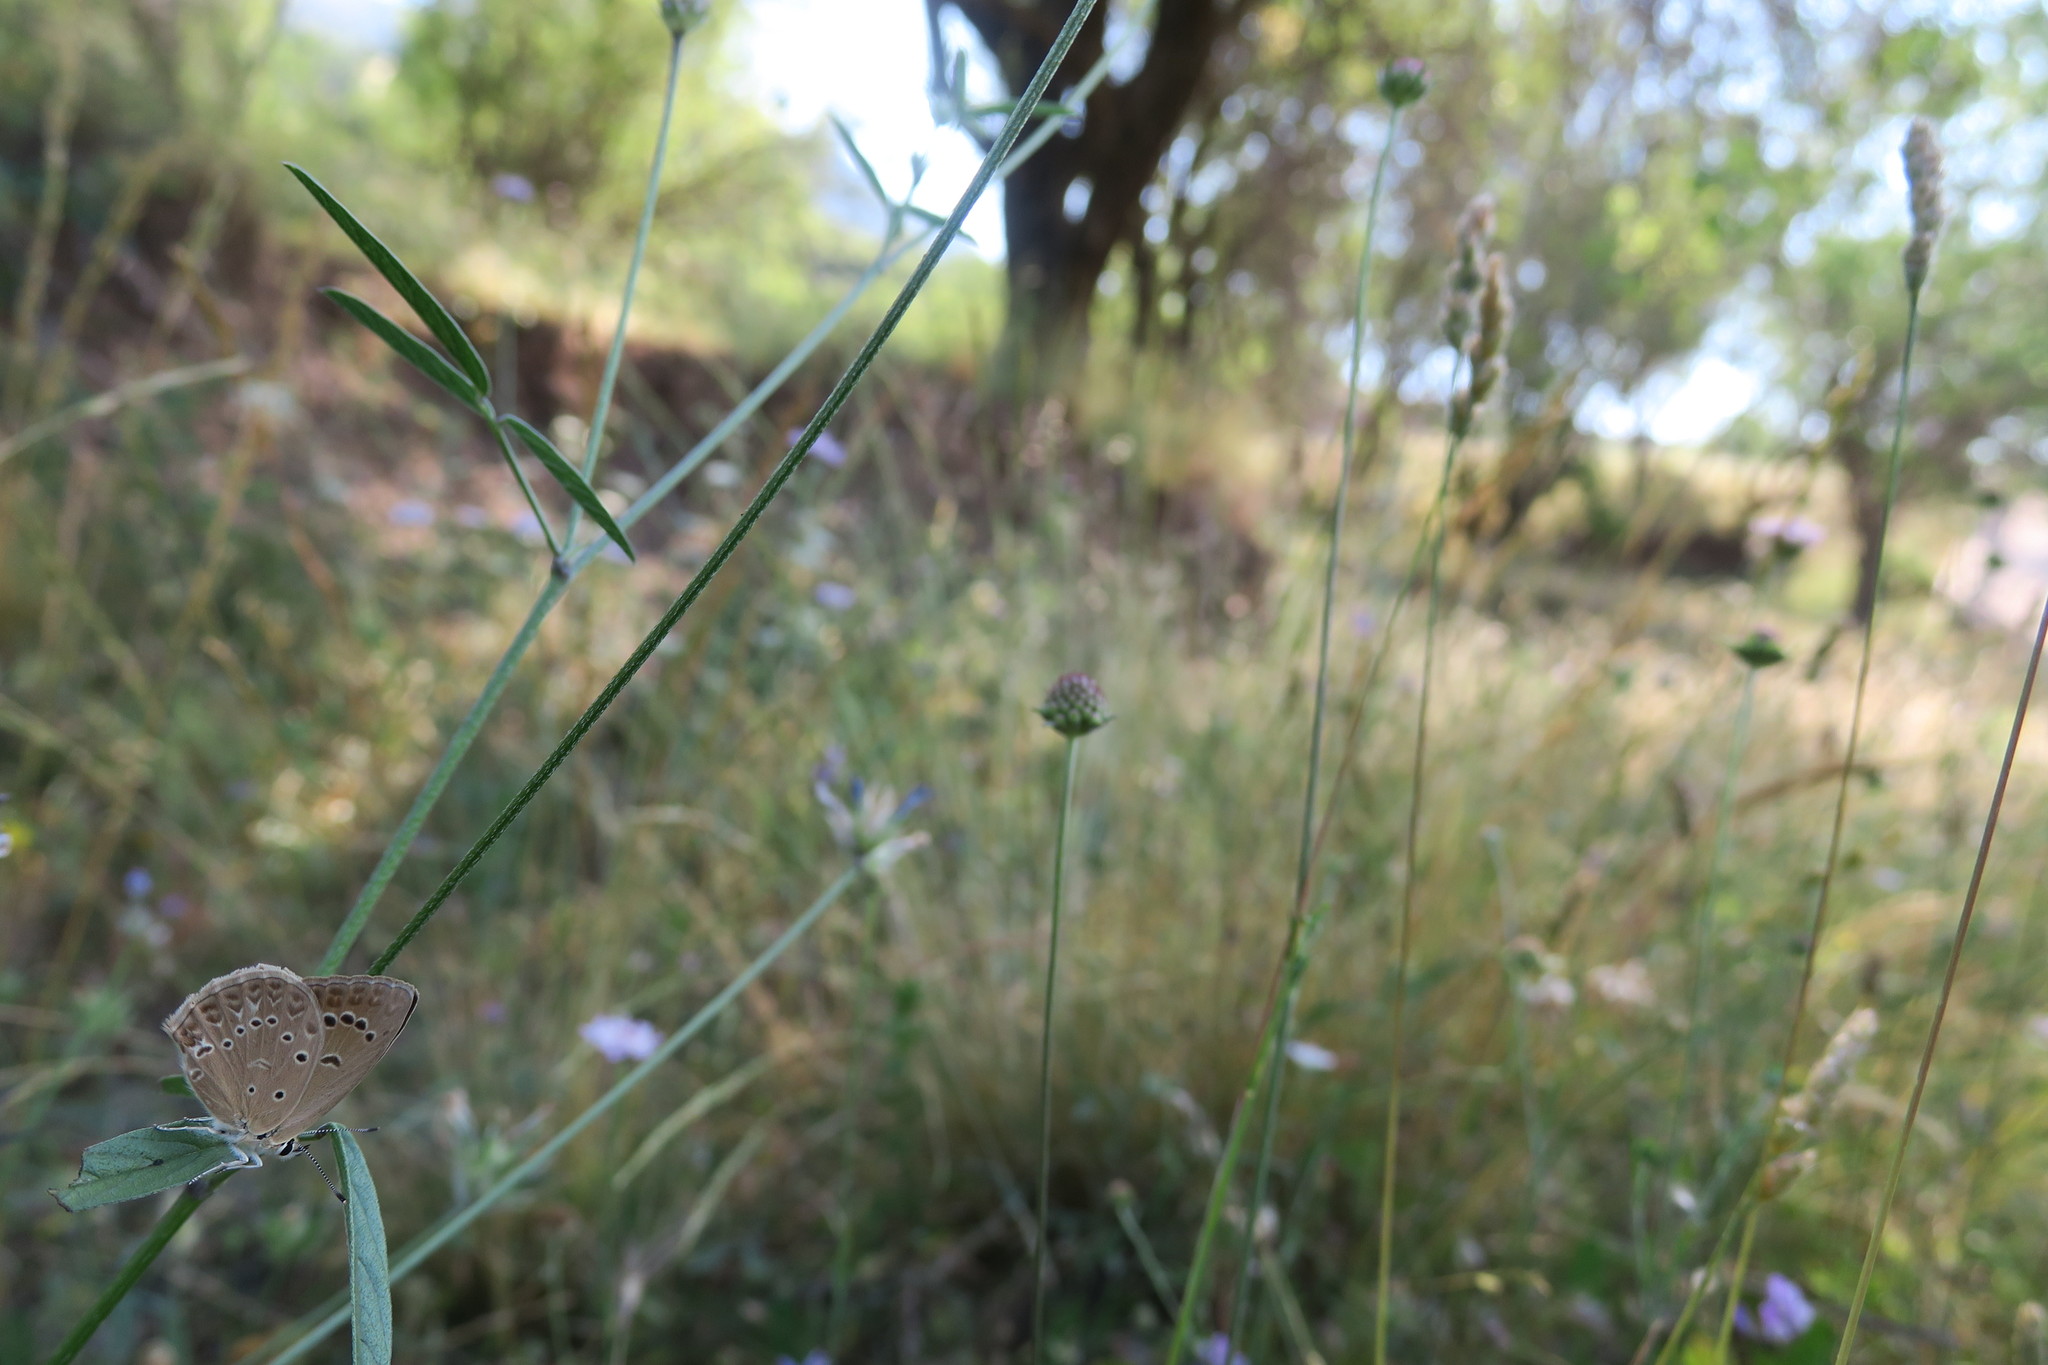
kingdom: Animalia
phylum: Arthropoda
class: Insecta
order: Lepidoptera
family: Lycaenidae
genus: Agrodiaetus
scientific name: Agrodiaetus admetus
